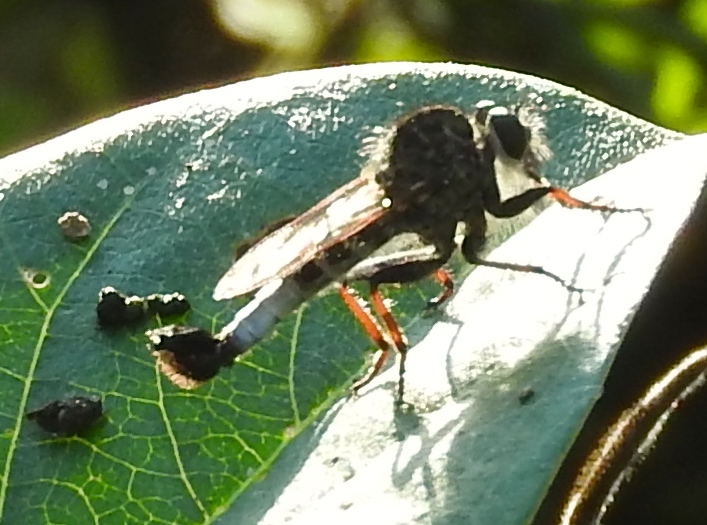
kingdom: Animalia
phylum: Arthropoda
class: Insecta
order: Diptera
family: Asilidae
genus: Efferia
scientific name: Efferia
